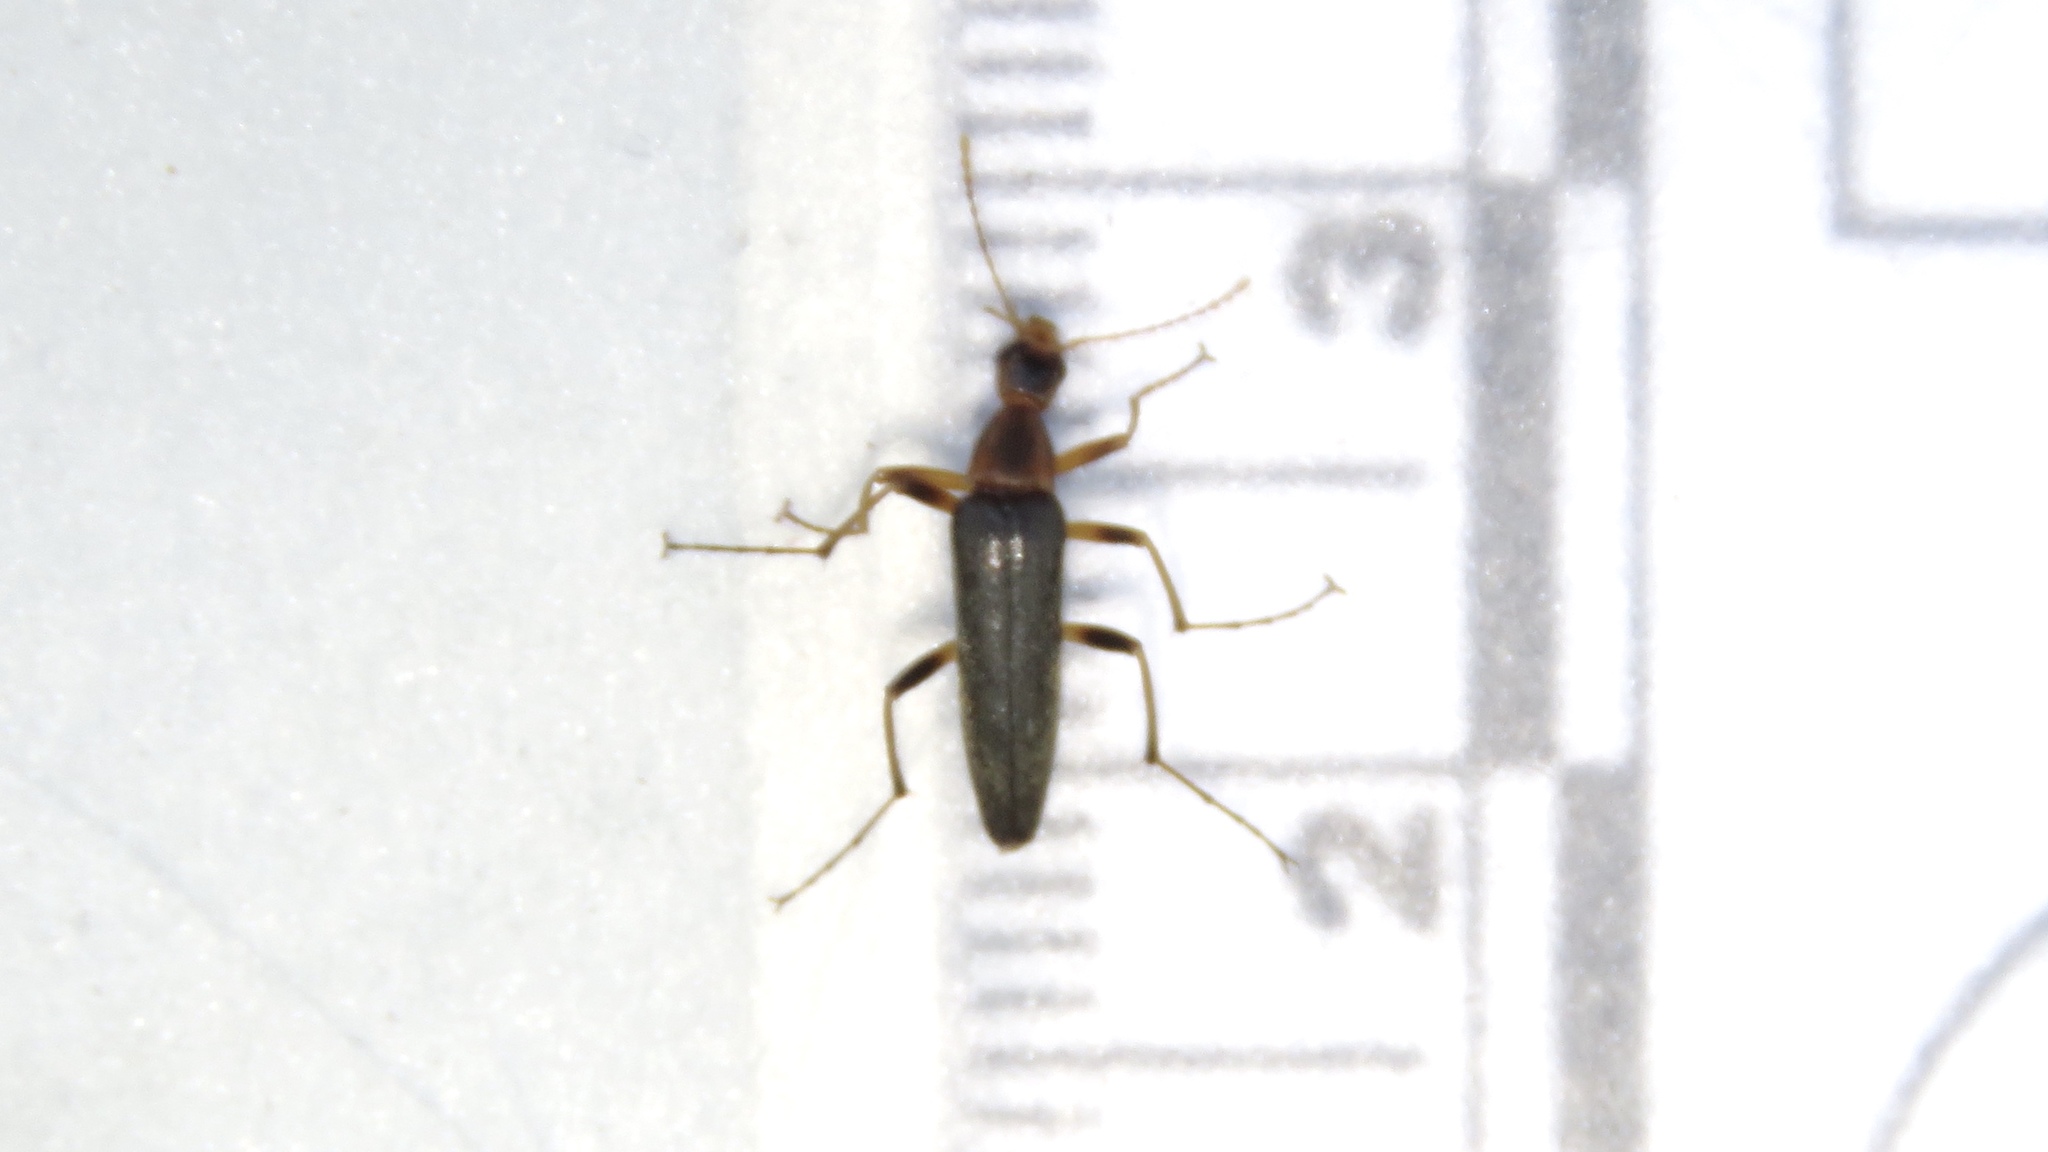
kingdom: Animalia
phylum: Arthropoda
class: Insecta
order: Coleoptera
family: Stenotrachelidae
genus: Cephaloon
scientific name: Cephaloon lepturides
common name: False leptura beetle
